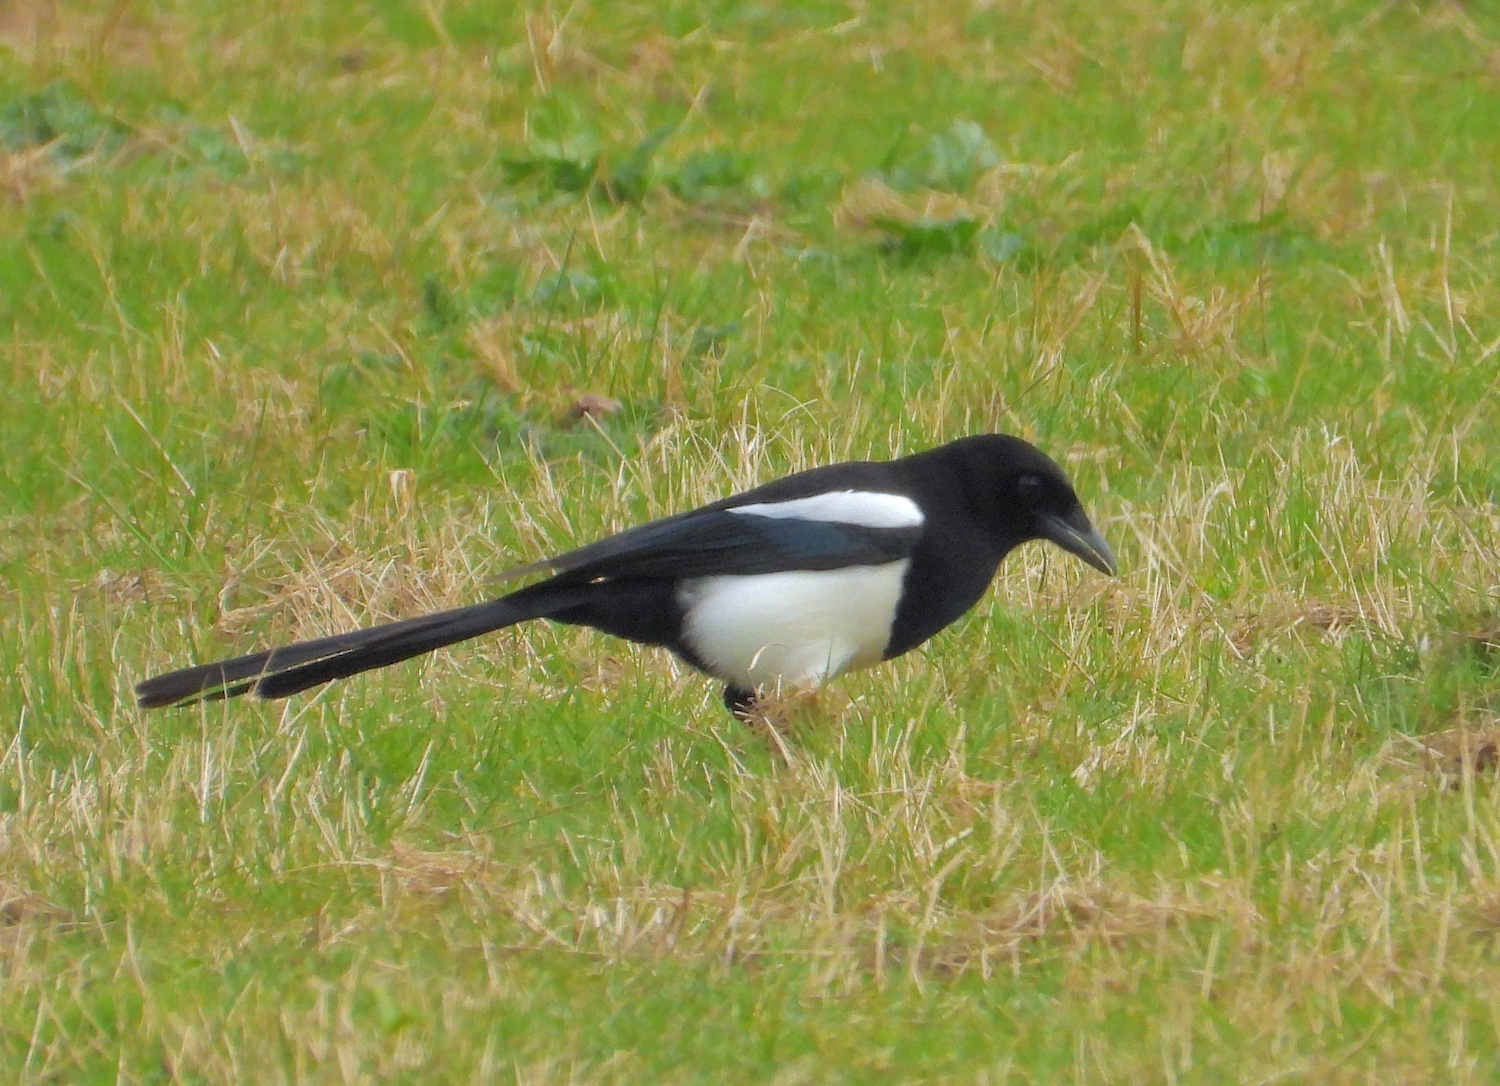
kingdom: Animalia
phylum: Chordata
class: Aves
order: Passeriformes
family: Corvidae
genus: Pica
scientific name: Pica pica
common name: Eurasian magpie
